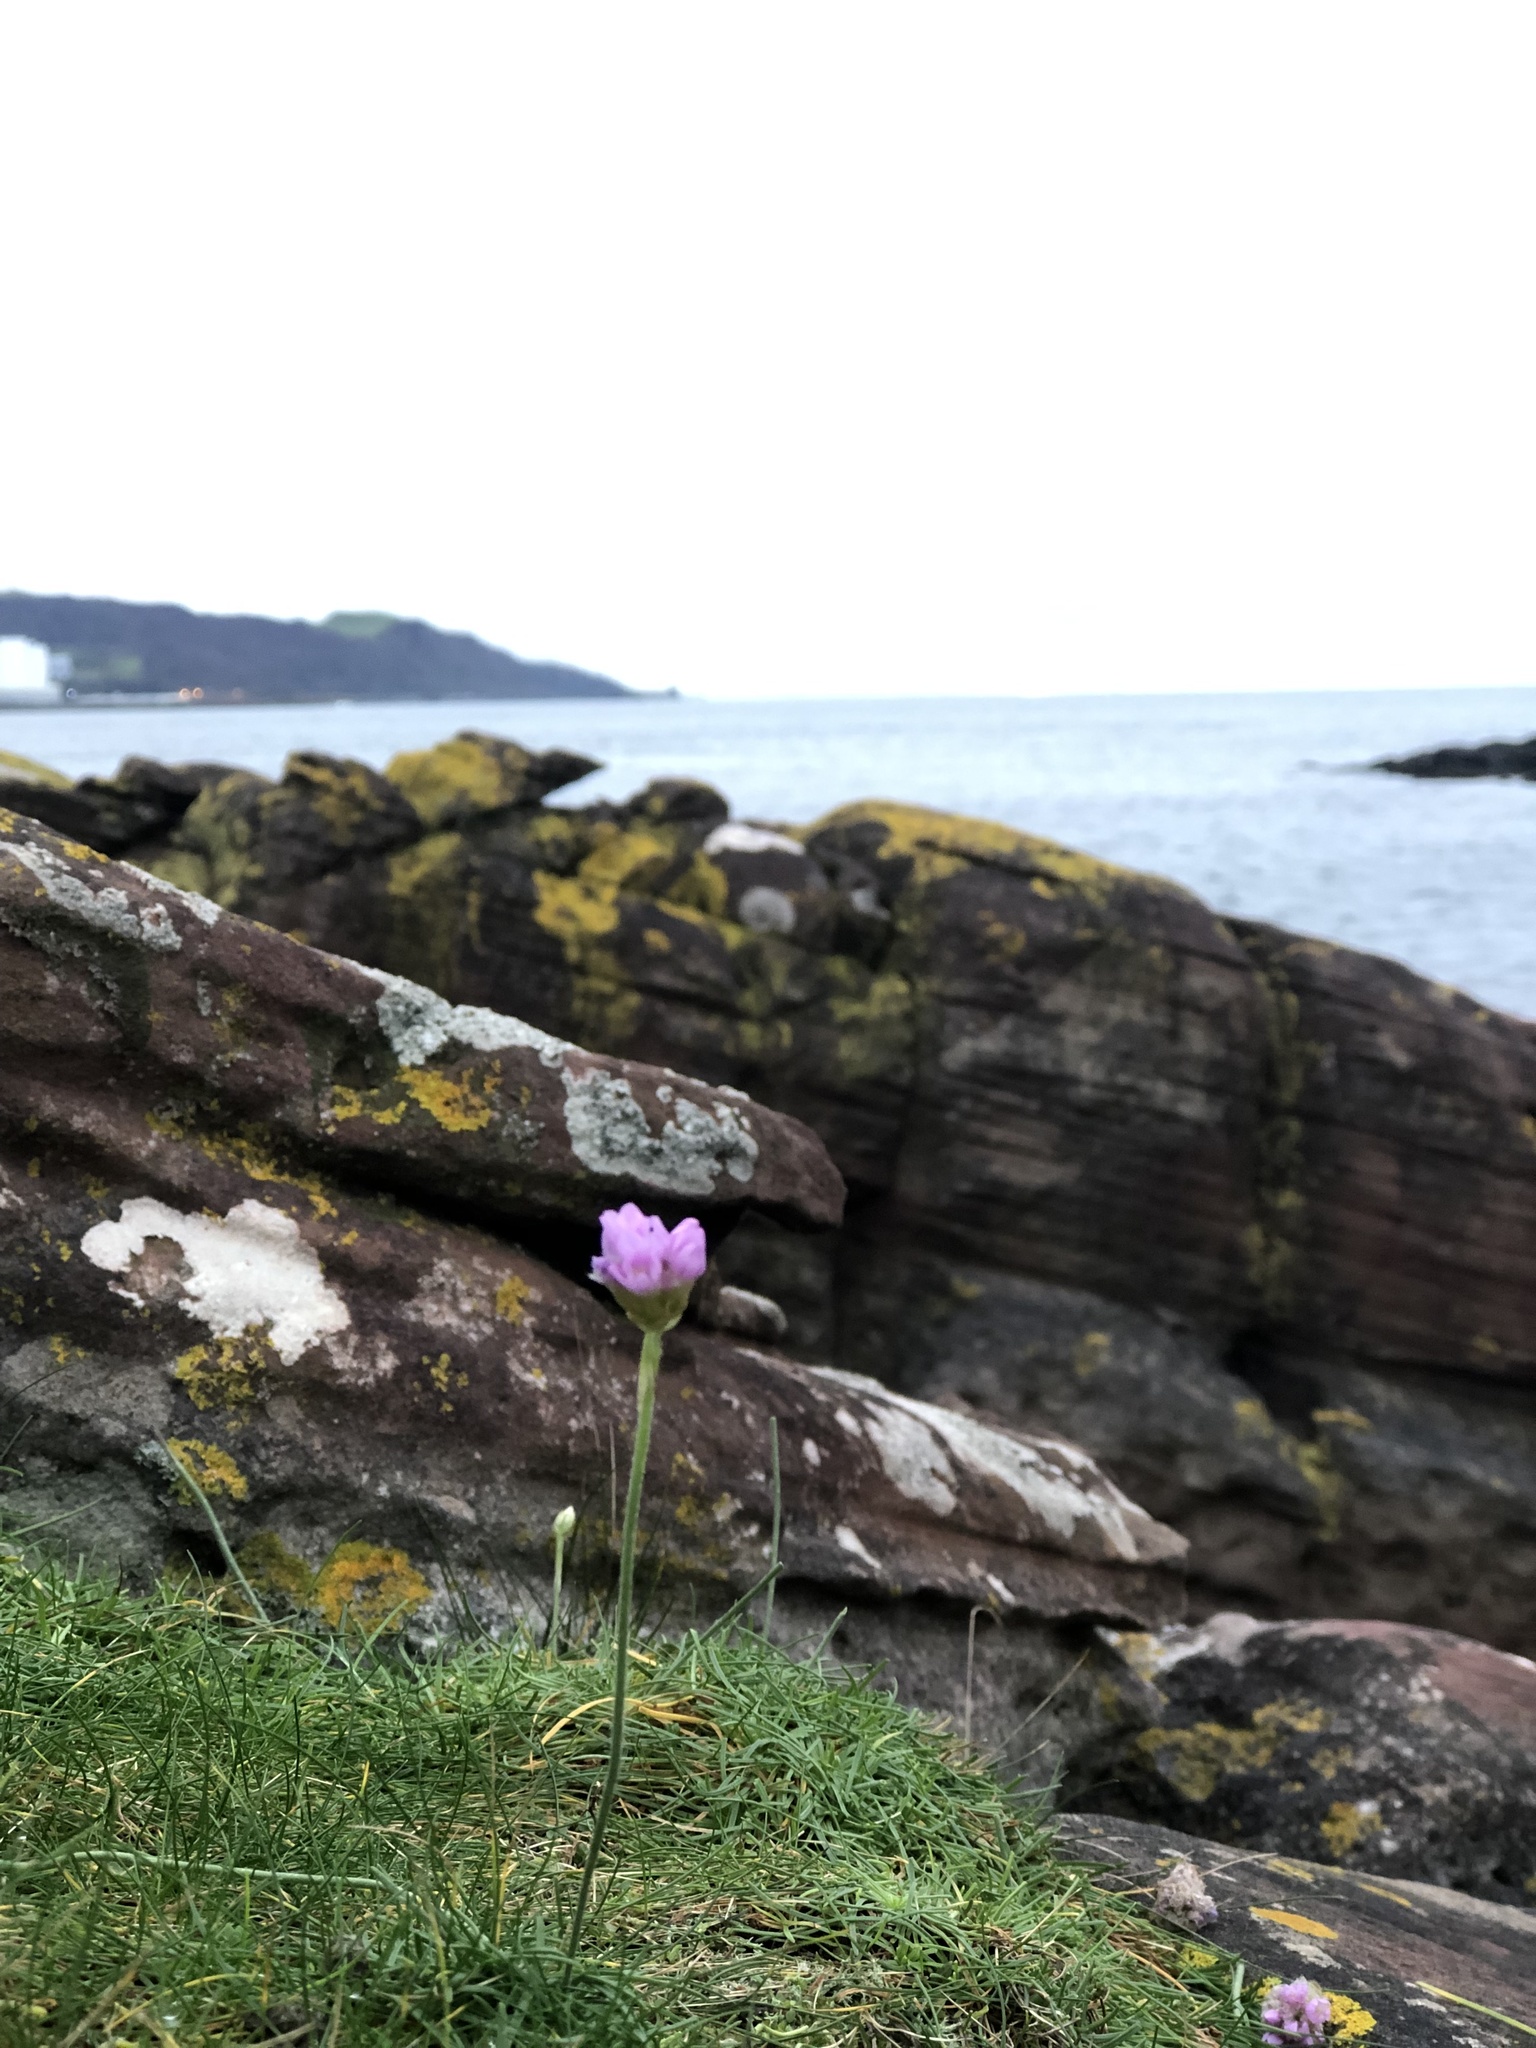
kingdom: Plantae
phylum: Tracheophyta
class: Magnoliopsida
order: Caryophyllales
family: Plumbaginaceae
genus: Armeria
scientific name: Armeria maritima
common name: Thrift
